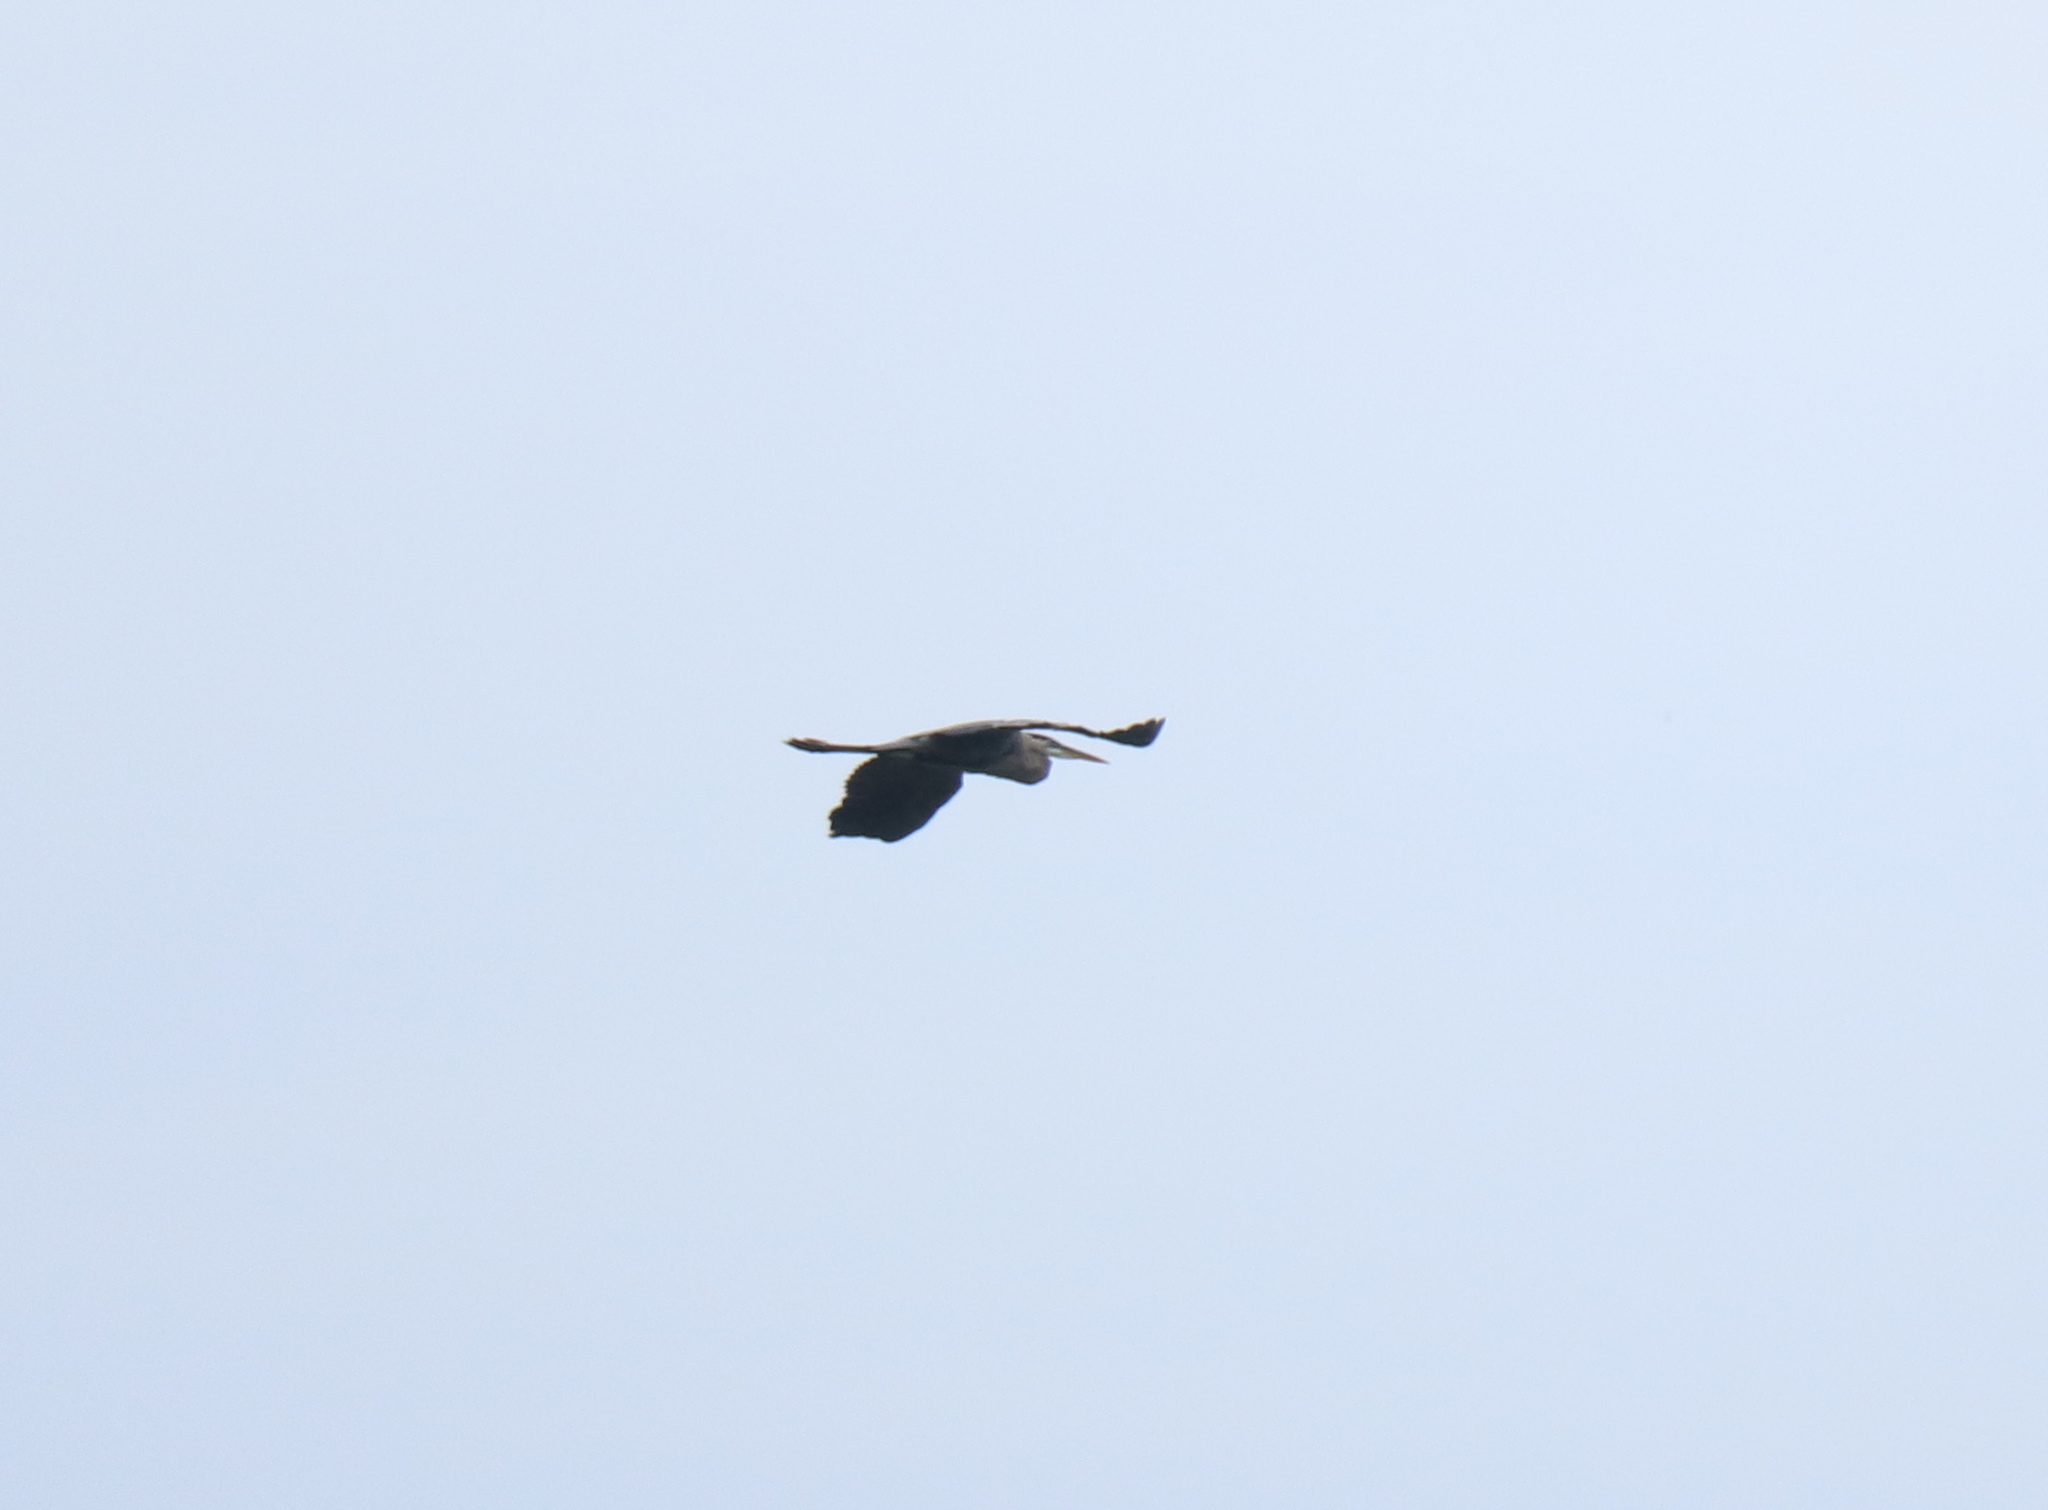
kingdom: Animalia
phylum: Chordata
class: Aves
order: Pelecaniformes
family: Ardeidae
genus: Ardea
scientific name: Ardea herodias
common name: Great blue heron
